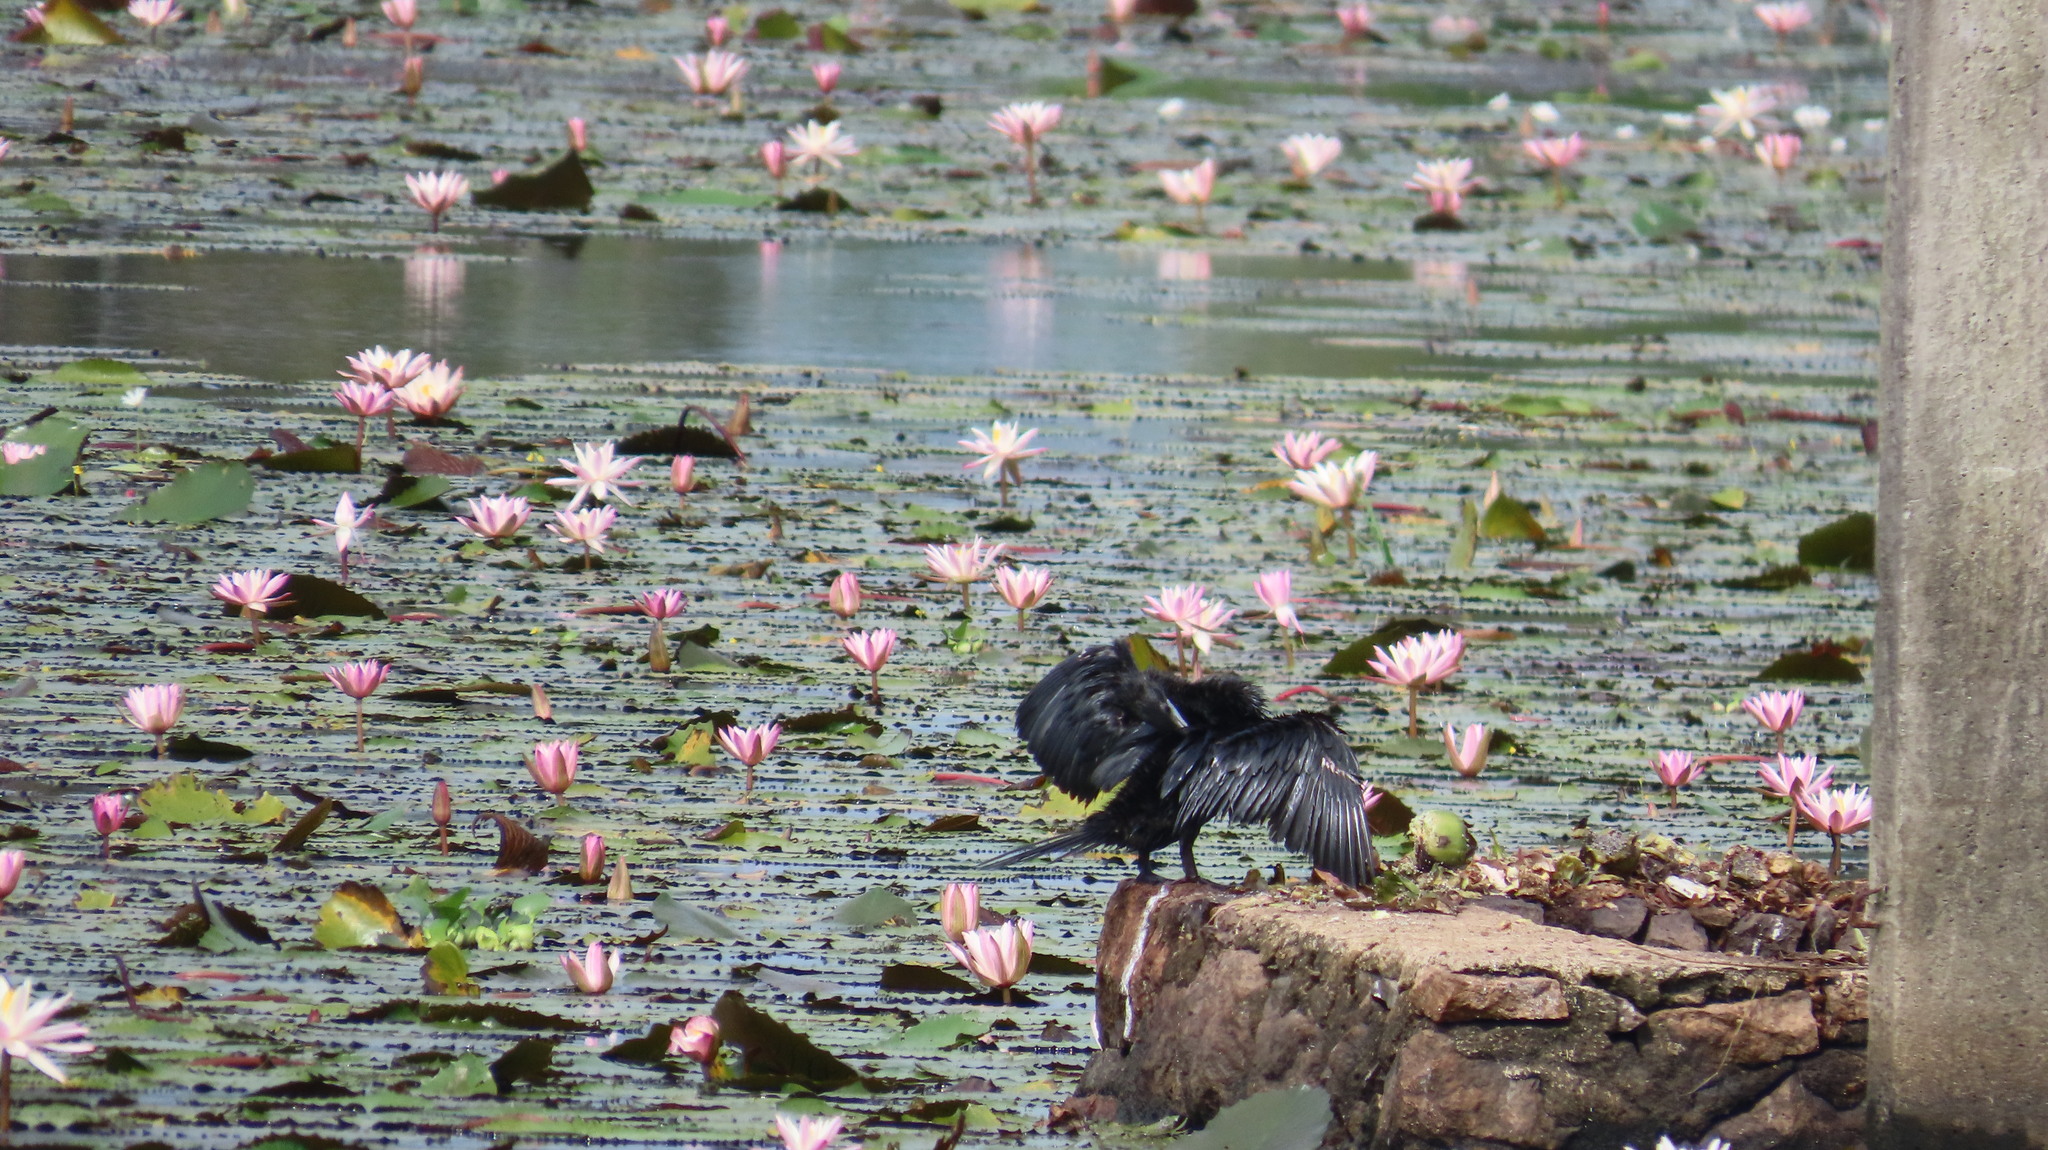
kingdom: Animalia
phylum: Chordata
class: Aves
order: Suliformes
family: Phalacrocoracidae
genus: Microcarbo
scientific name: Microcarbo niger
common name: Little cormorant
